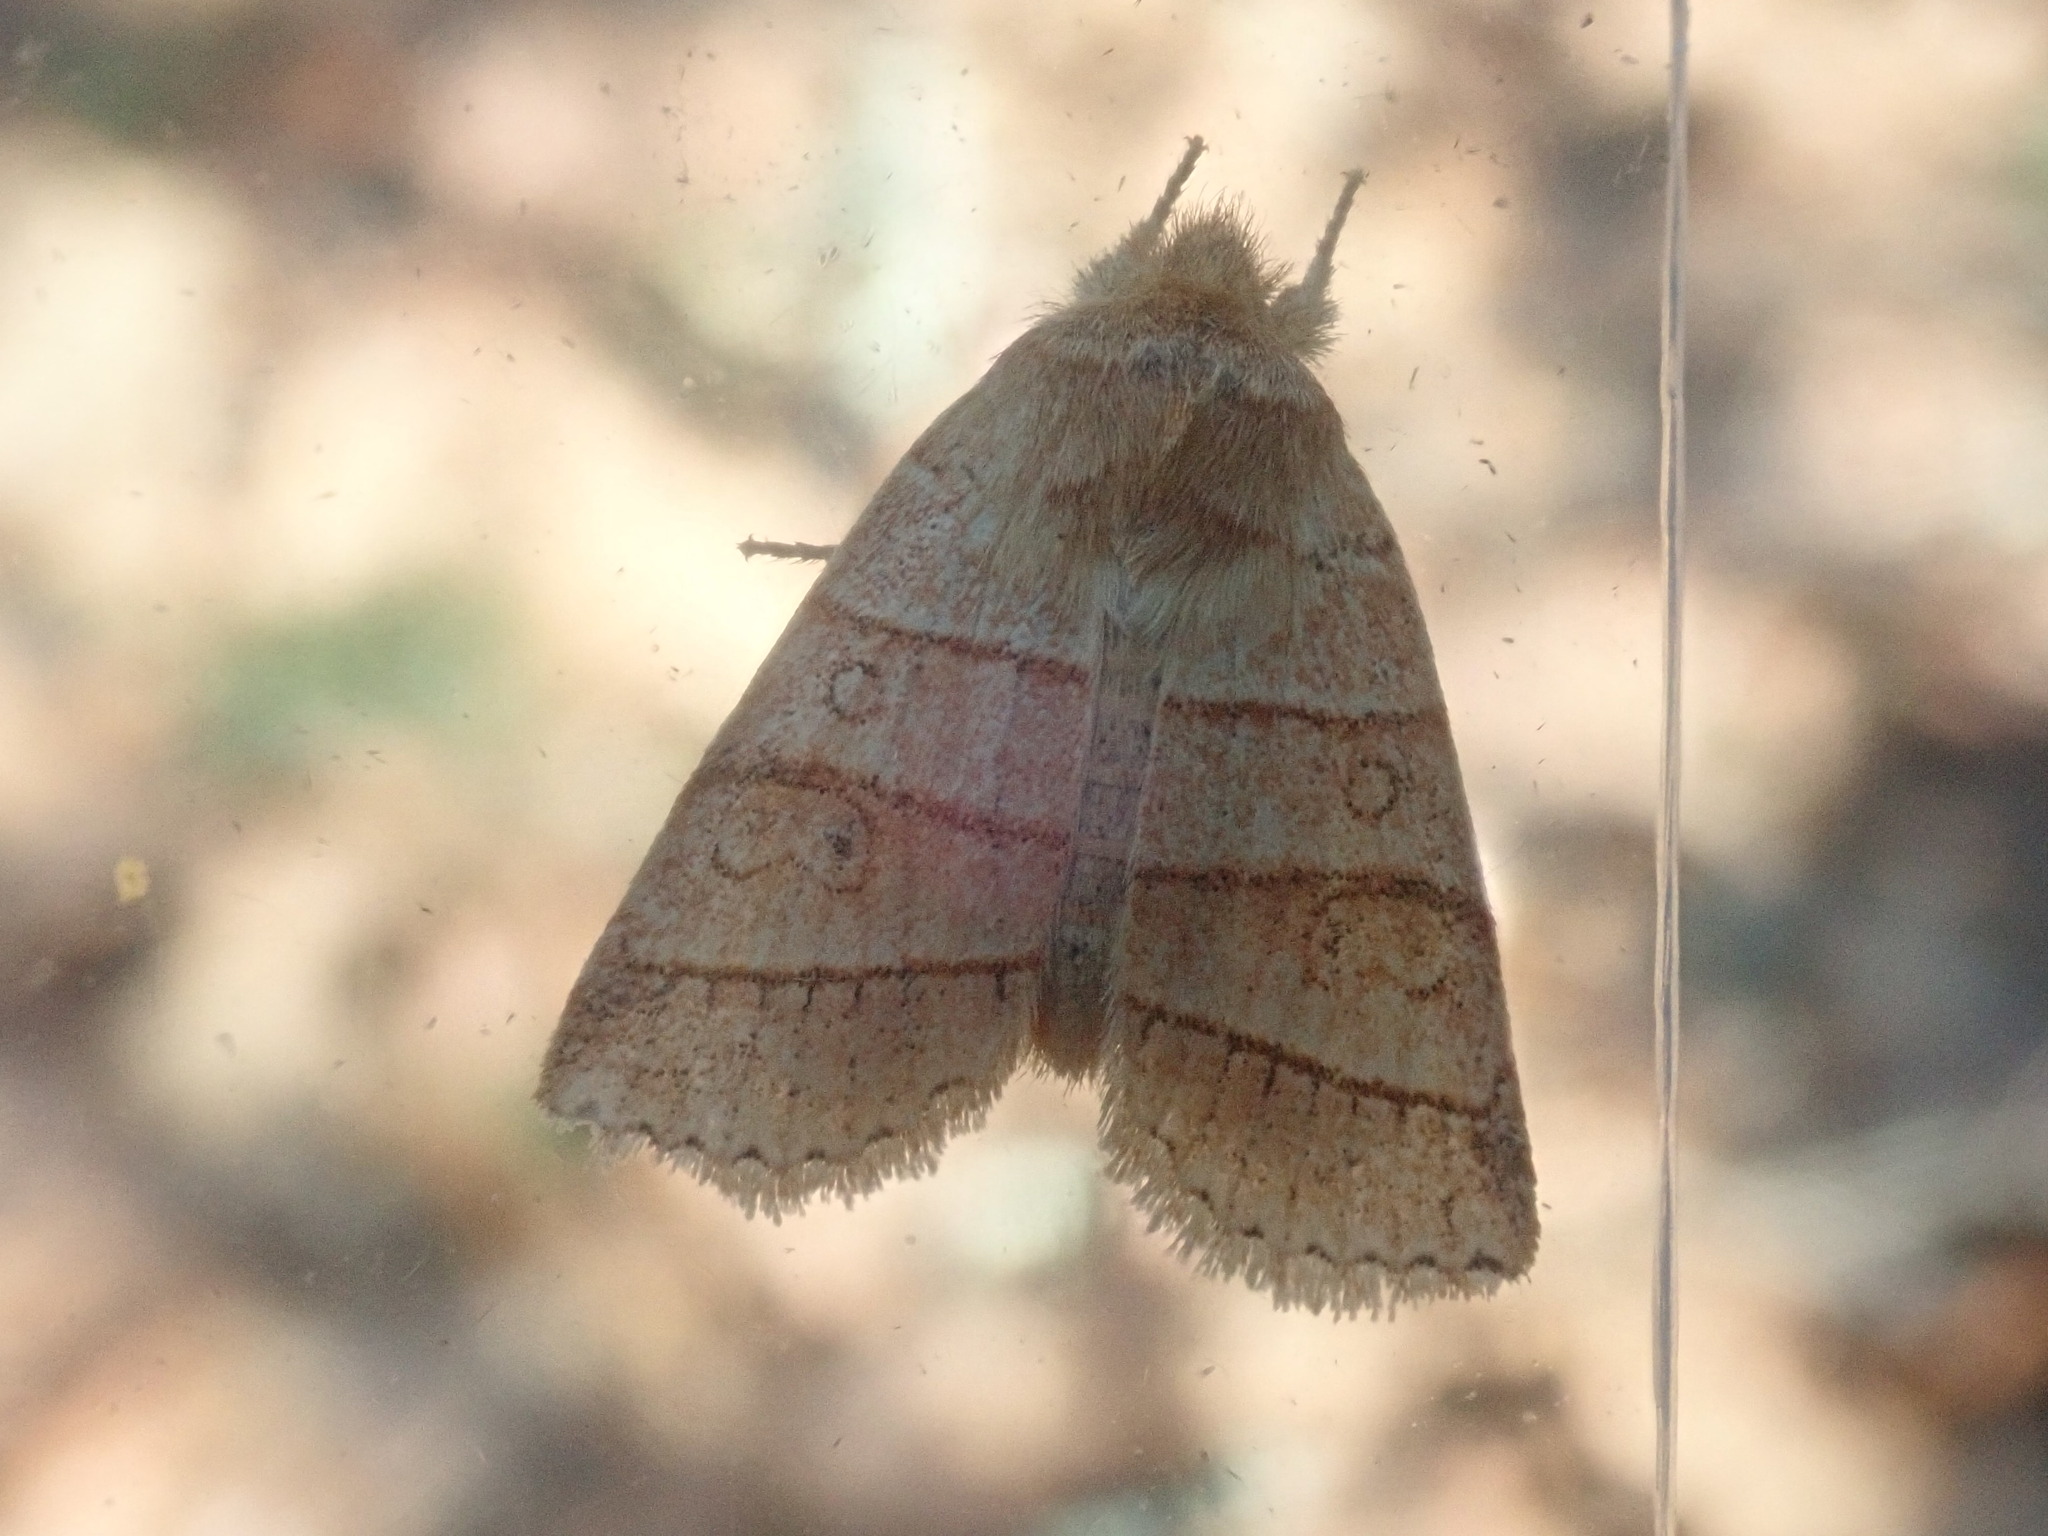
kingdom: Animalia
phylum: Arthropoda
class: Insecta
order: Lepidoptera
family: Noctuidae
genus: Pyreferra
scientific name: Pyreferra citrombra
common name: Citrine sallow
